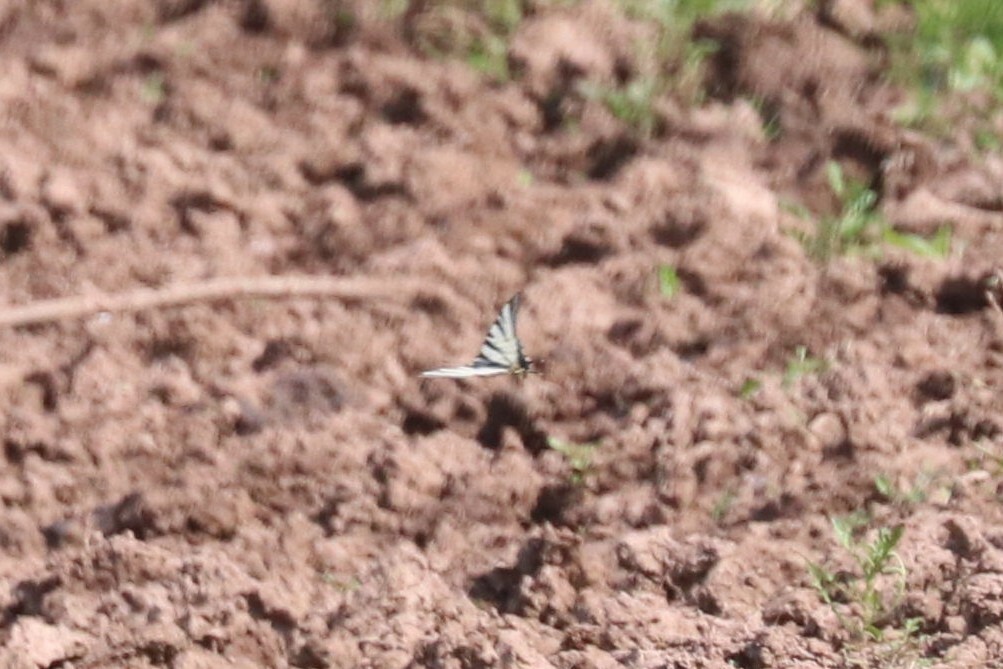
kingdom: Animalia
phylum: Arthropoda
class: Insecta
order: Lepidoptera
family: Papilionidae
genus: Iphiclides
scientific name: Iphiclides podalirius
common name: Scarce swallowtail
